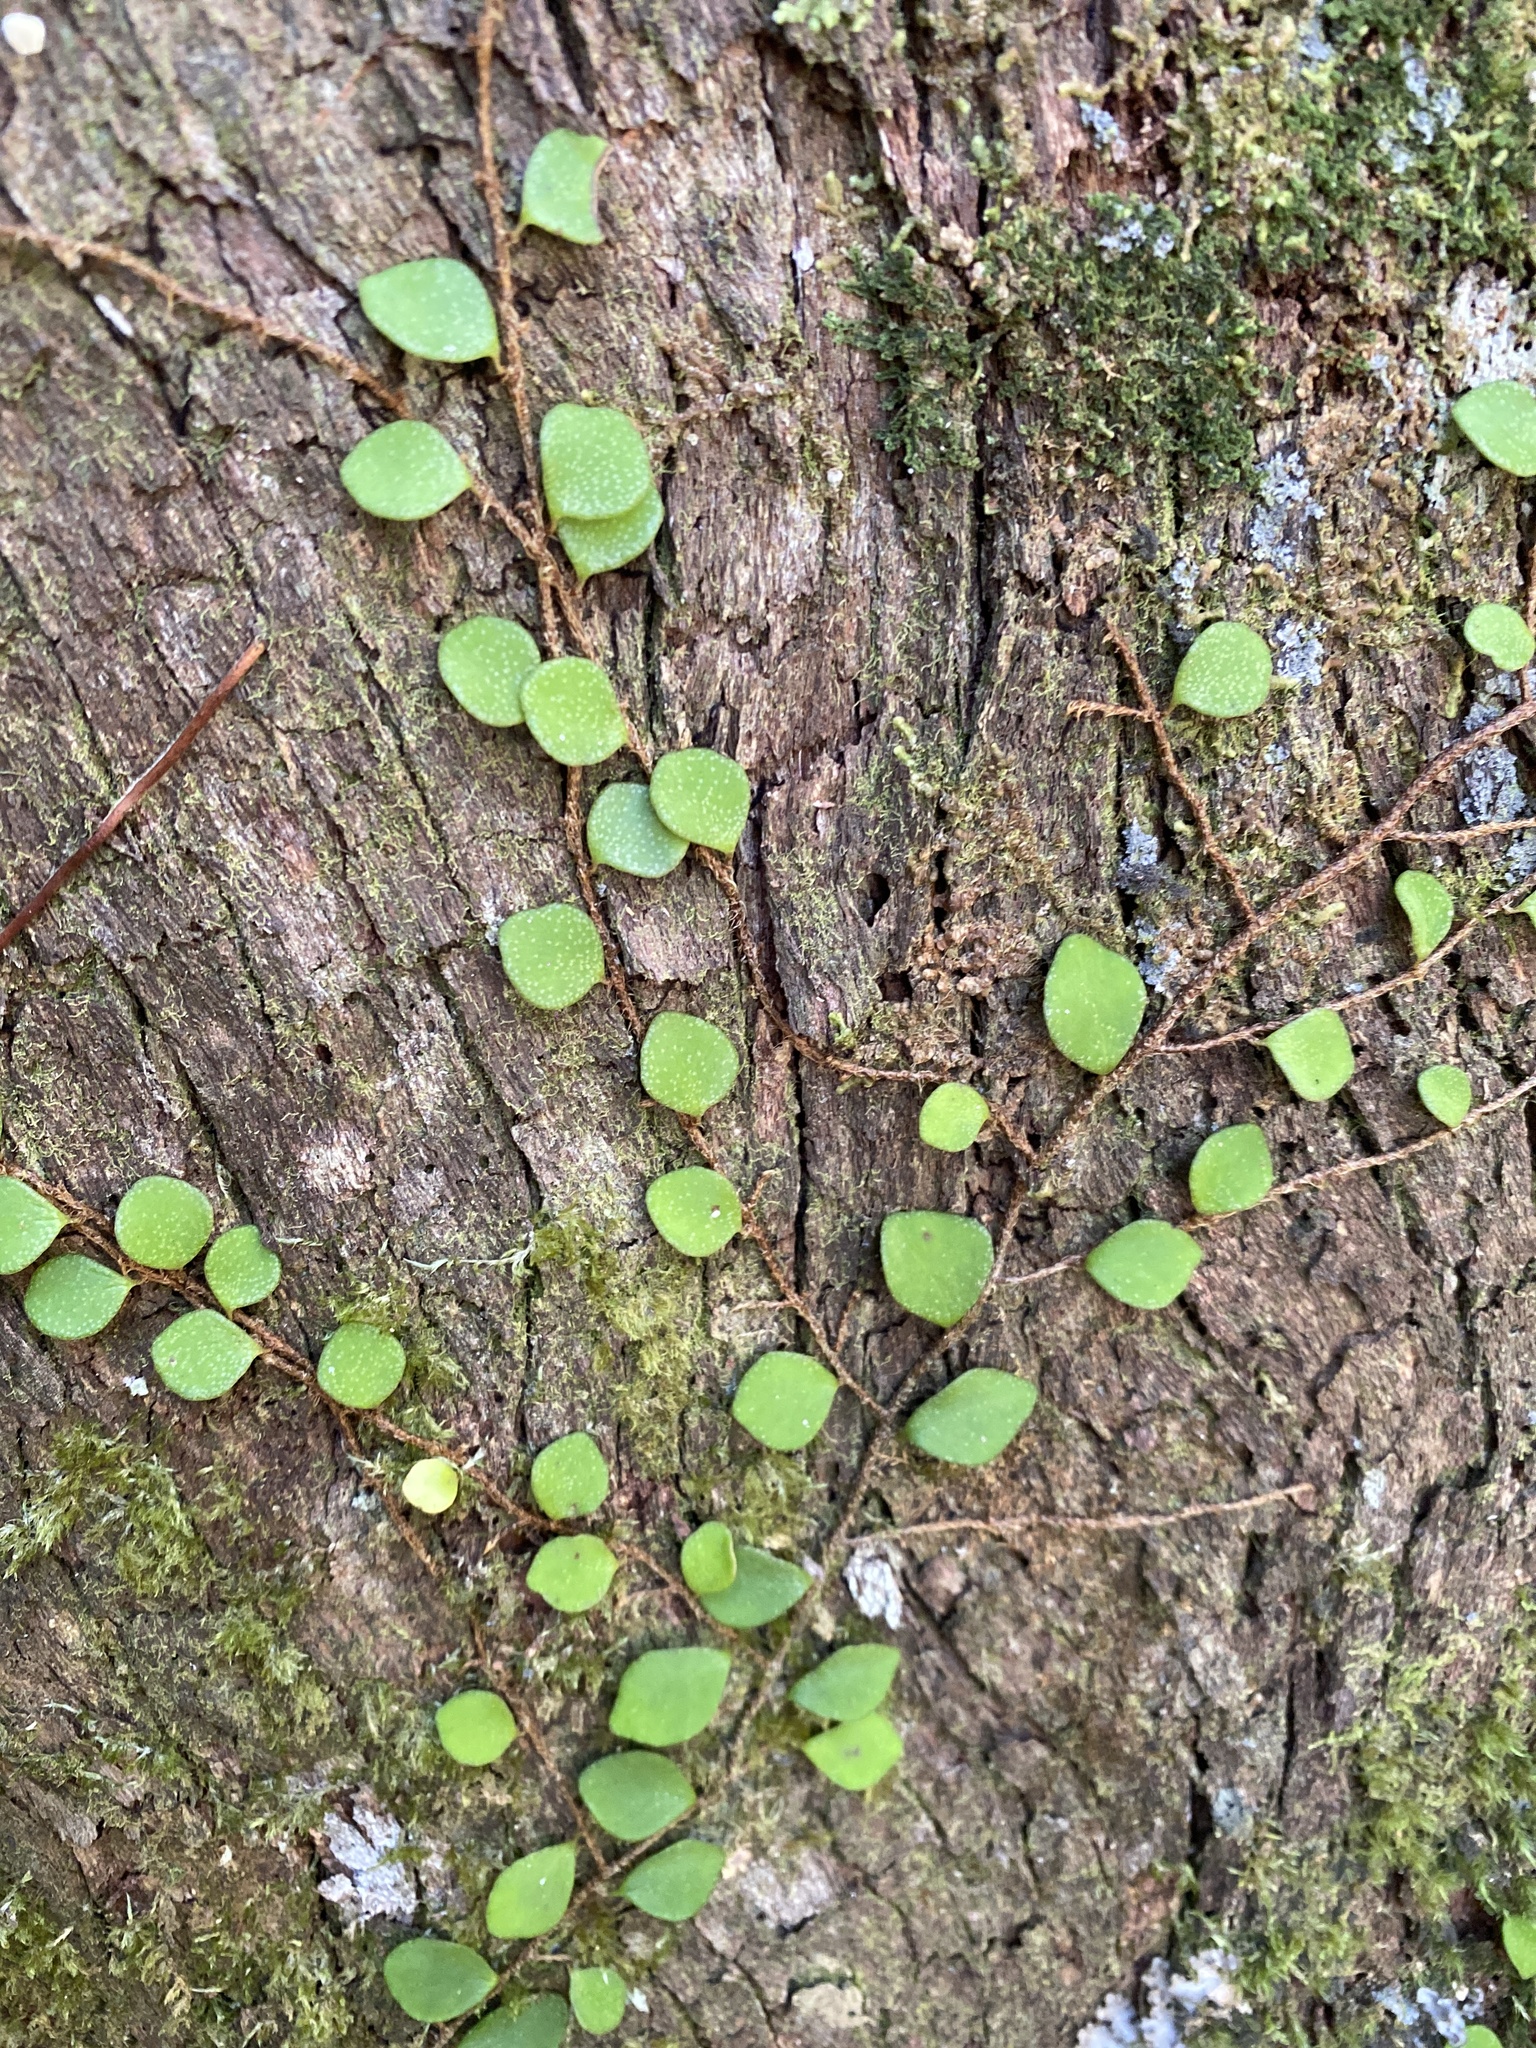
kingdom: Plantae
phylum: Tracheophyta
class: Polypodiopsida
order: Polypodiales
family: Polypodiaceae
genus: Pyrrosia
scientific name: Pyrrosia rupestris
